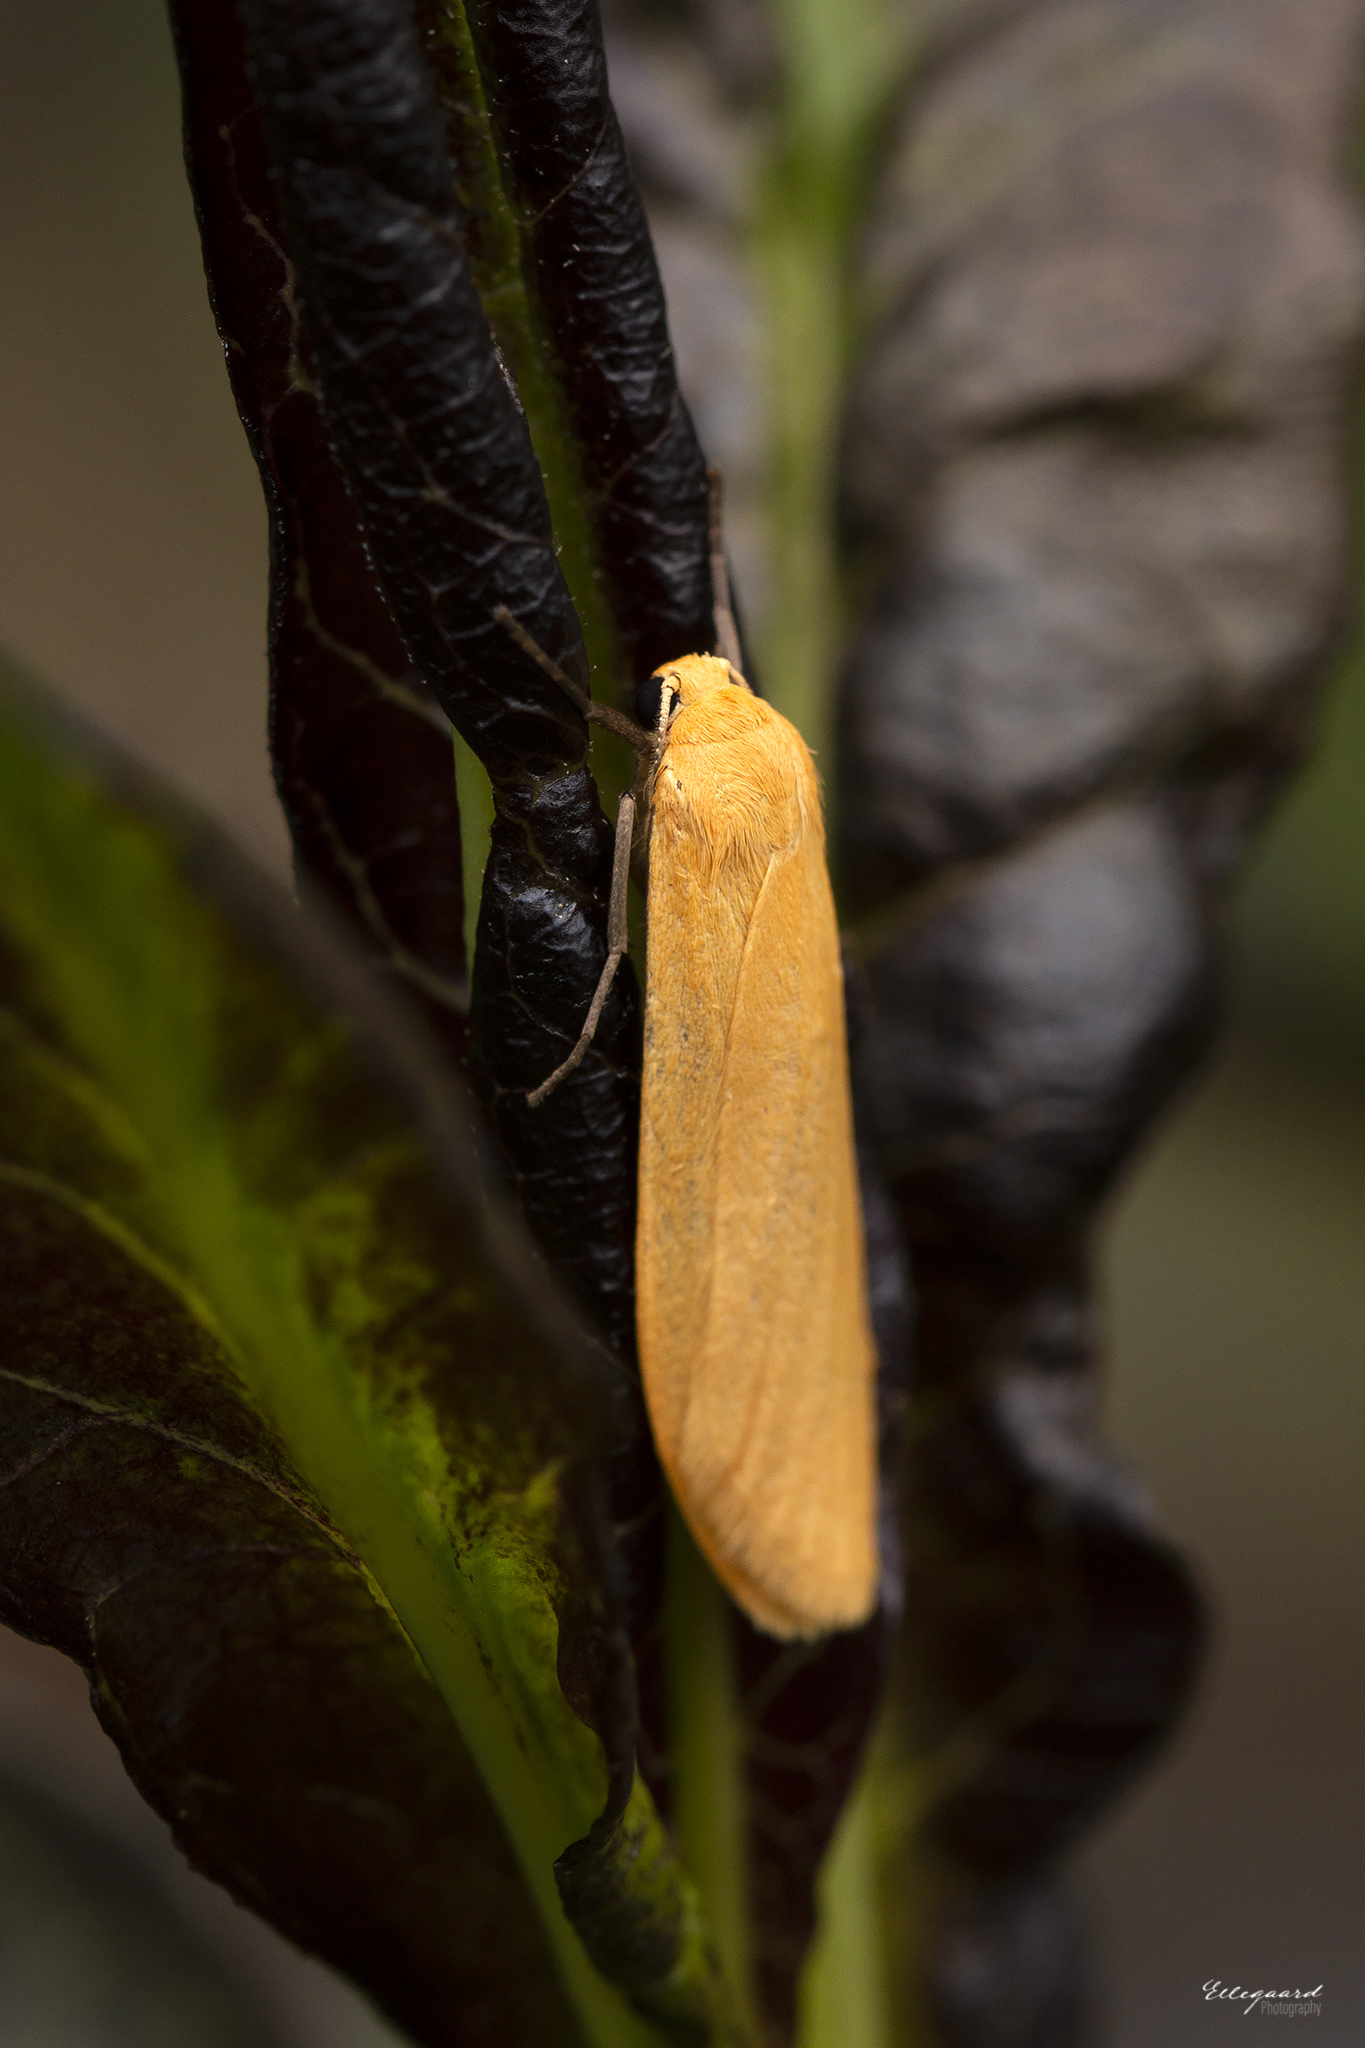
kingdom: Animalia
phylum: Arthropoda
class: Insecta
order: Lepidoptera
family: Erebidae
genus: Wittia
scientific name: Wittia sororcula
